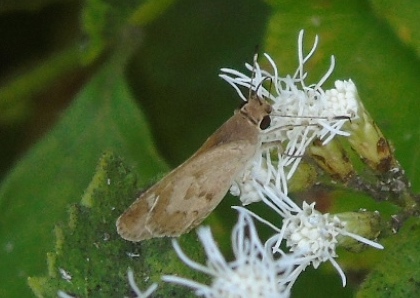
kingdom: Animalia
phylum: Arthropoda
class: Insecta
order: Lepidoptera
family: Hesperiidae
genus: Callimormus
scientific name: Callimormus saturnus
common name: Saturnus skipper
